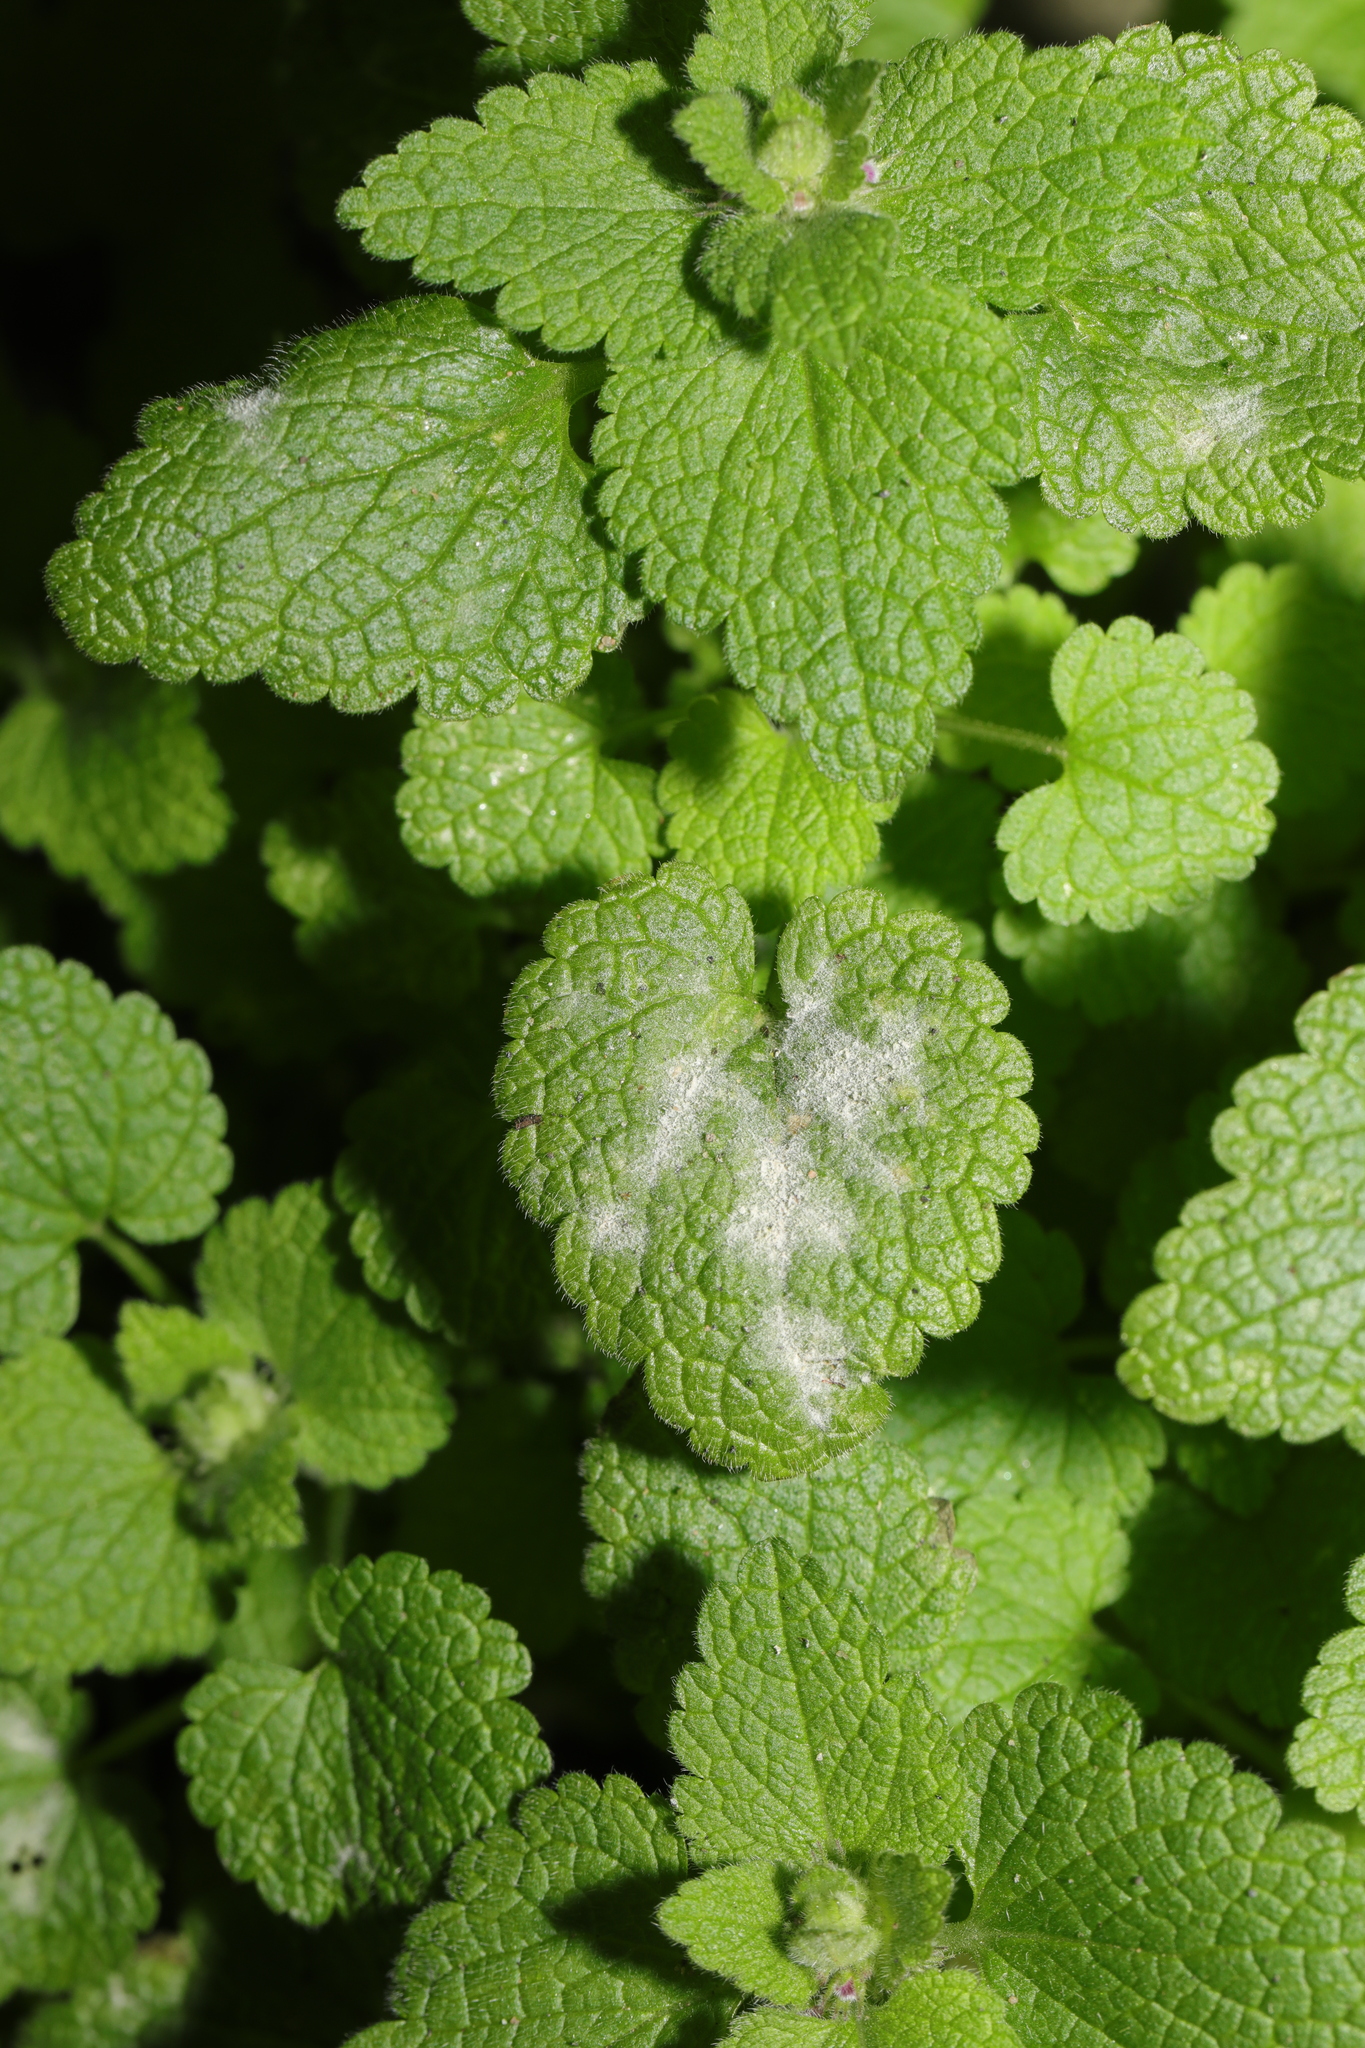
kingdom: Fungi
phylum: Ascomycota
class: Leotiomycetes
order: Helotiales
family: Erysiphaceae
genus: Neoerysiphe
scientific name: Neoerysiphe galeopsidis
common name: Mint mildew
